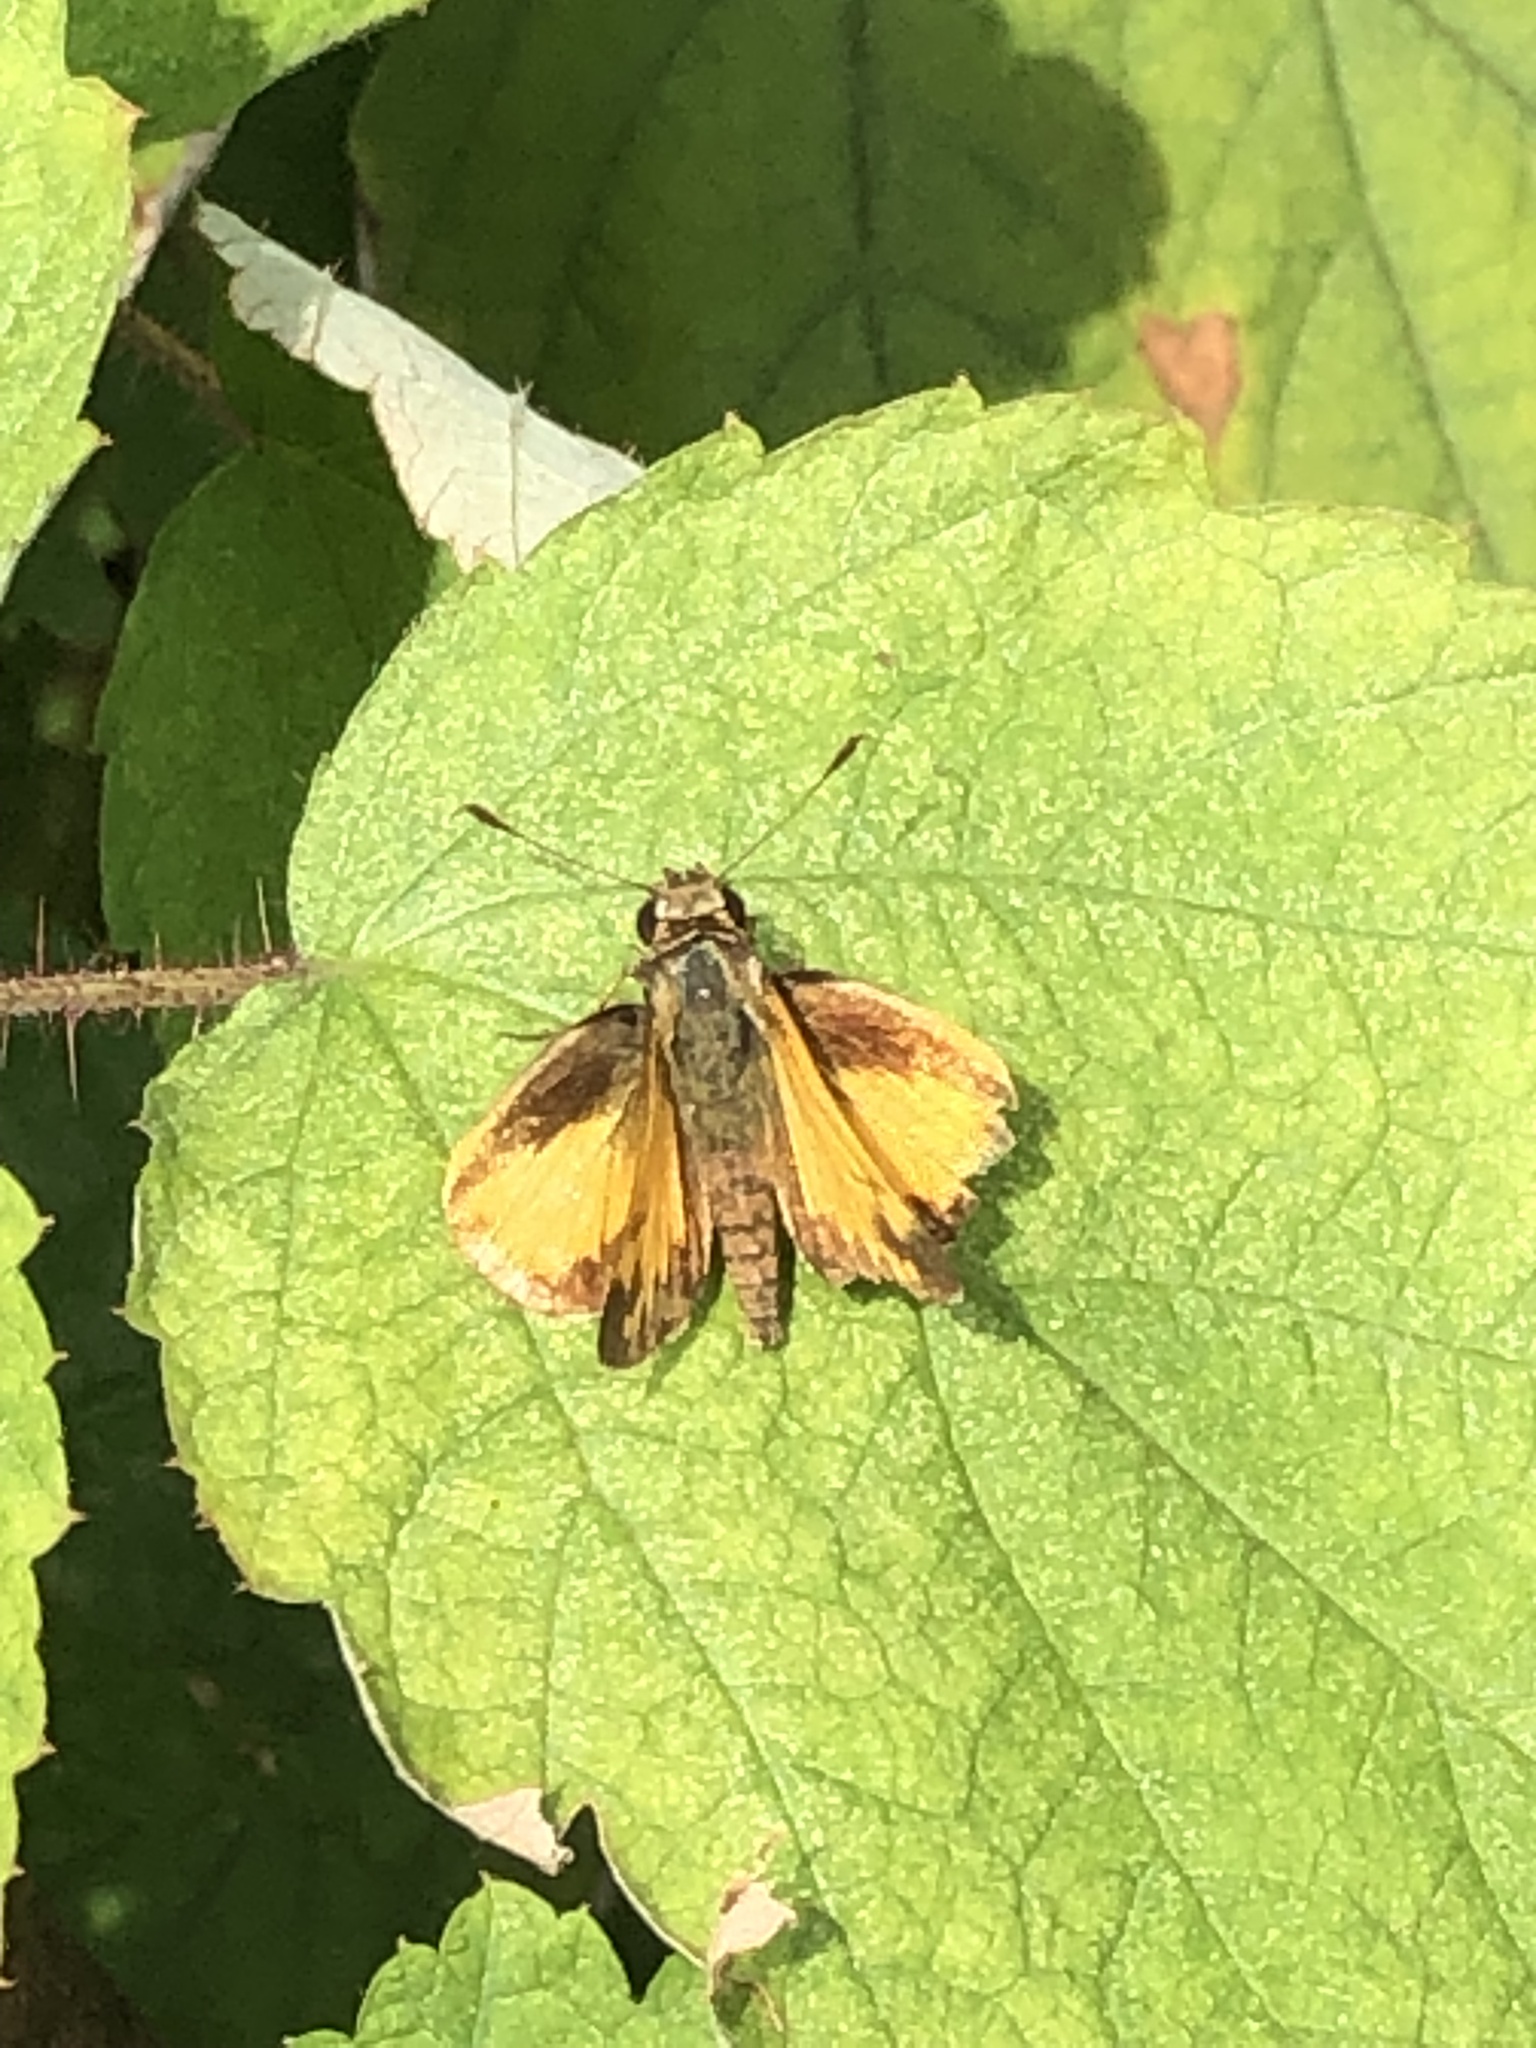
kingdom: Animalia
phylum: Arthropoda
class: Insecta
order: Lepidoptera
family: Hesperiidae
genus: Lon
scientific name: Lon zabulon
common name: Zabulon skipper
